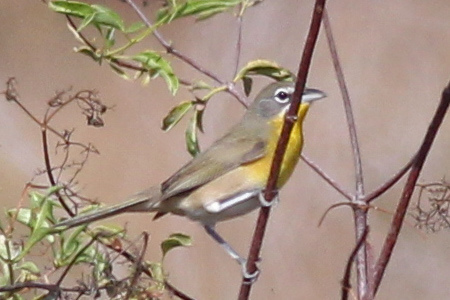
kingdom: Animalia
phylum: Chordata
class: Aves
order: Passeriformes
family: Parulidae
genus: Icteria
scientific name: Icteria virens
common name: Yellow-breasted chat
